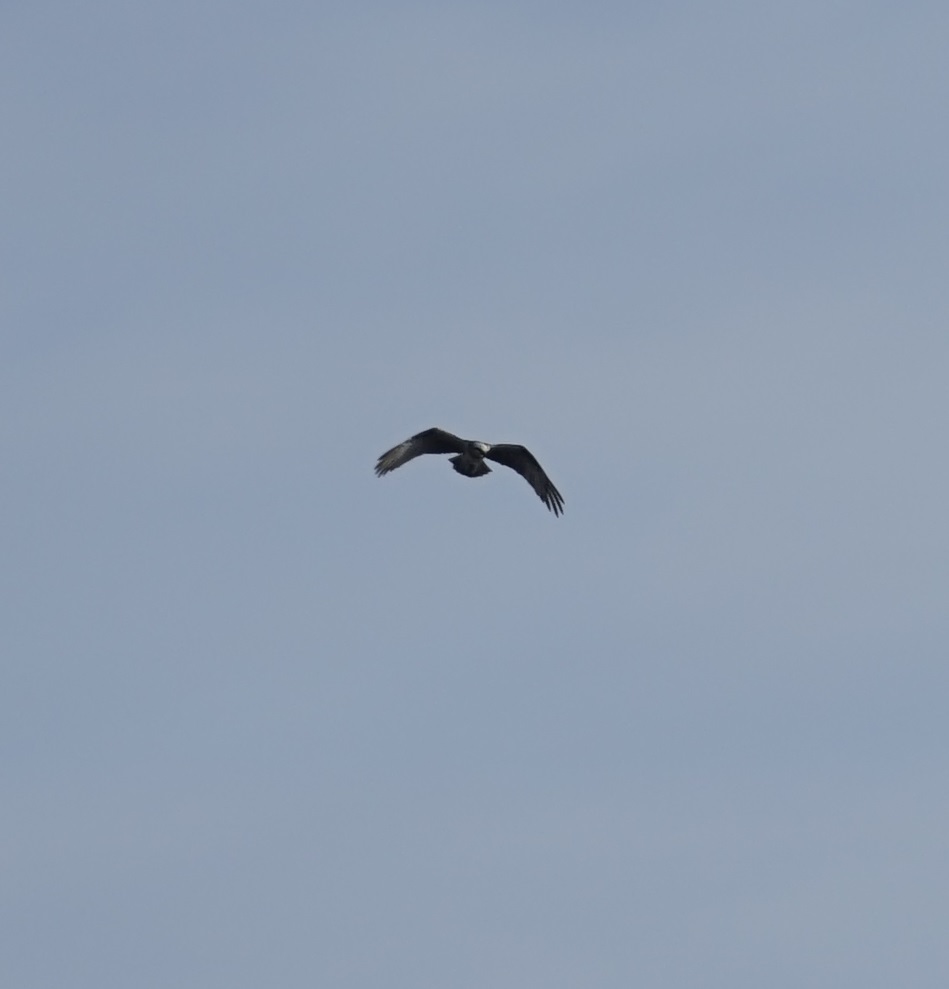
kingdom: Animalia
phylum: Chordata
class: Aves
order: Accipitriformes
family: Pandionidae
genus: Pandion
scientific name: Pandion cristatus
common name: Eastern osprey
